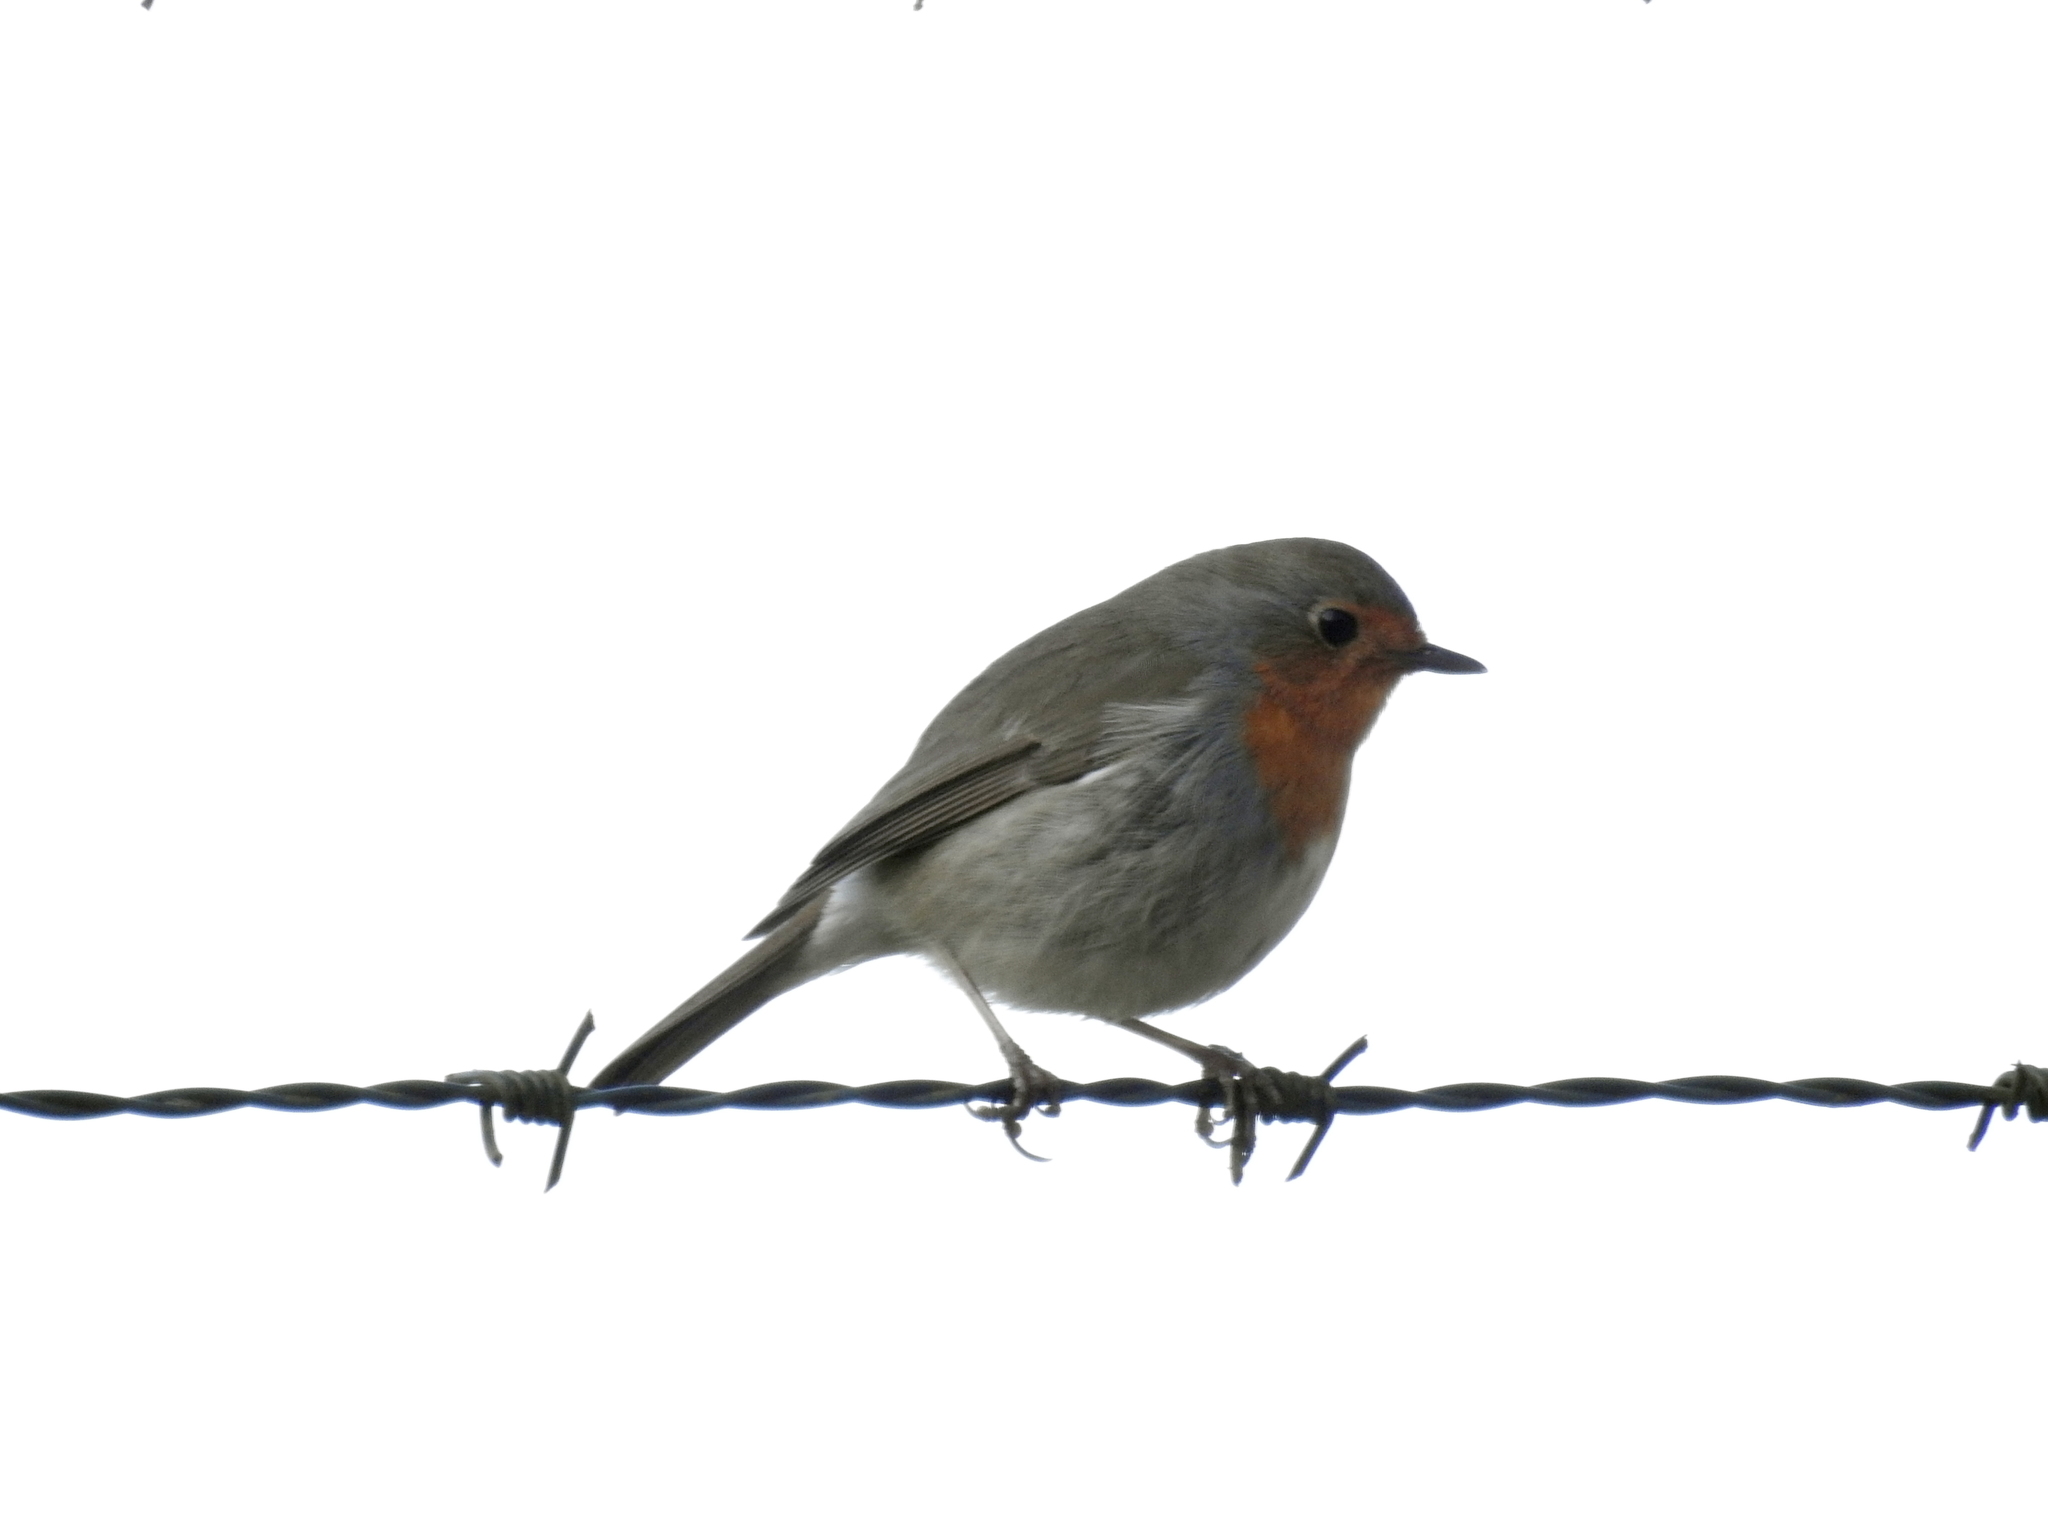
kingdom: Animalia
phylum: Chordata
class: Aves
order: Passeriformes
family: Muscicapidae
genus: Erithacus
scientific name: Erithacus rubecula
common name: European robin
